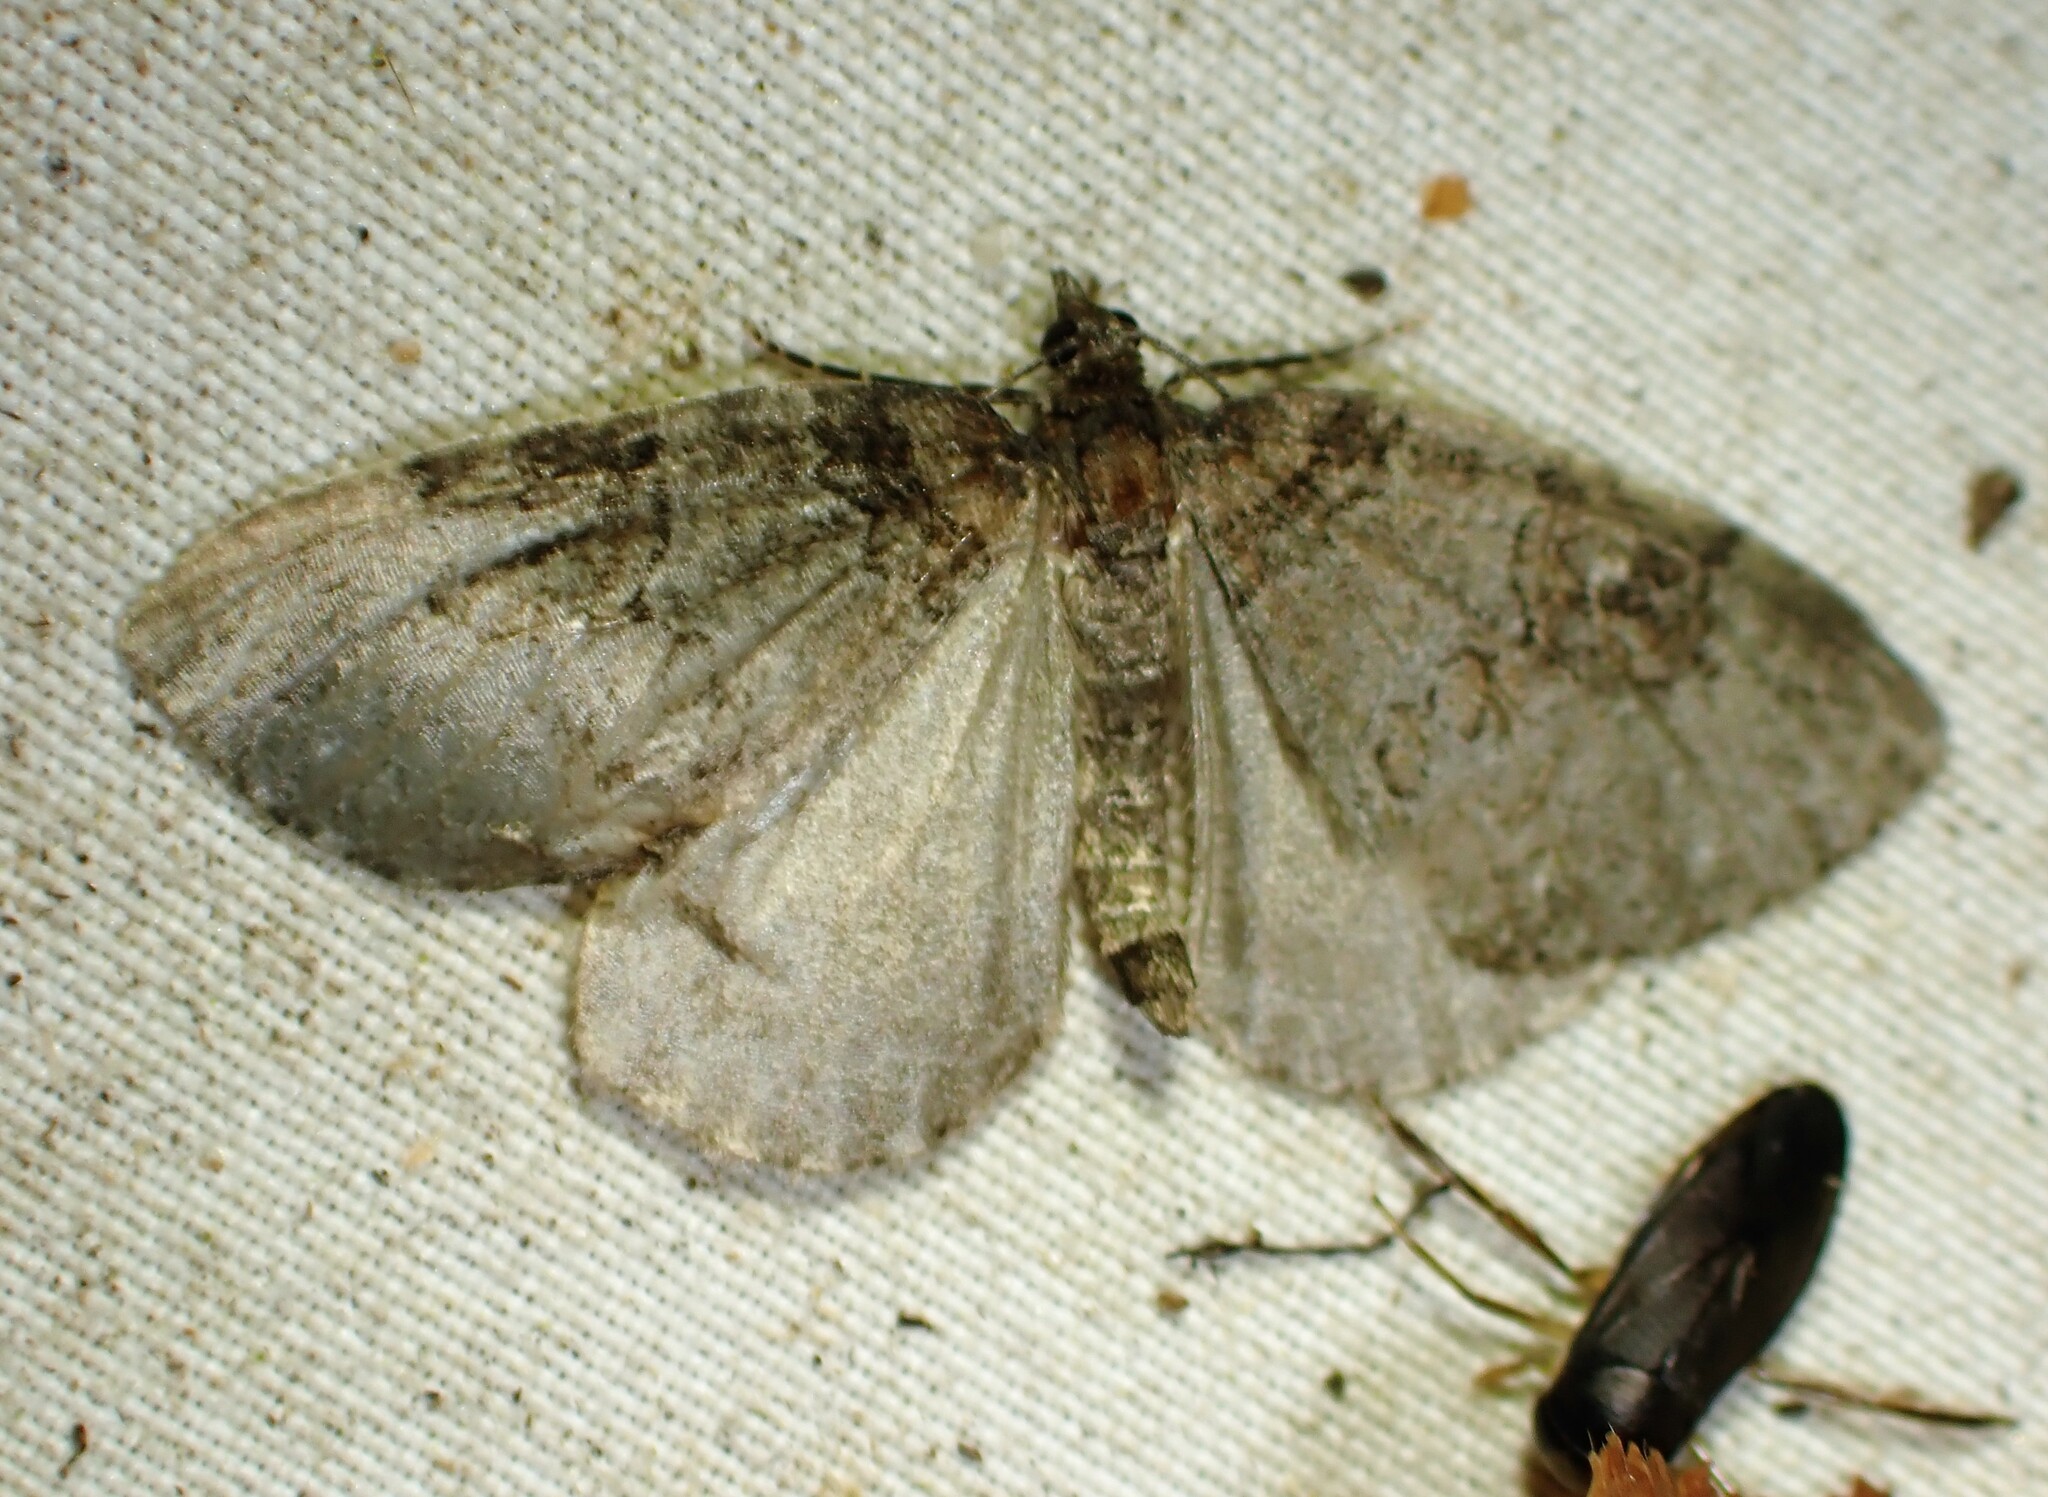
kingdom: Animalia
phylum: Arthropoda
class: Insecta
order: Lepidoptera
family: Geometridae
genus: Plemyria
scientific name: Plemyria georgii
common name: George's carpet moth
